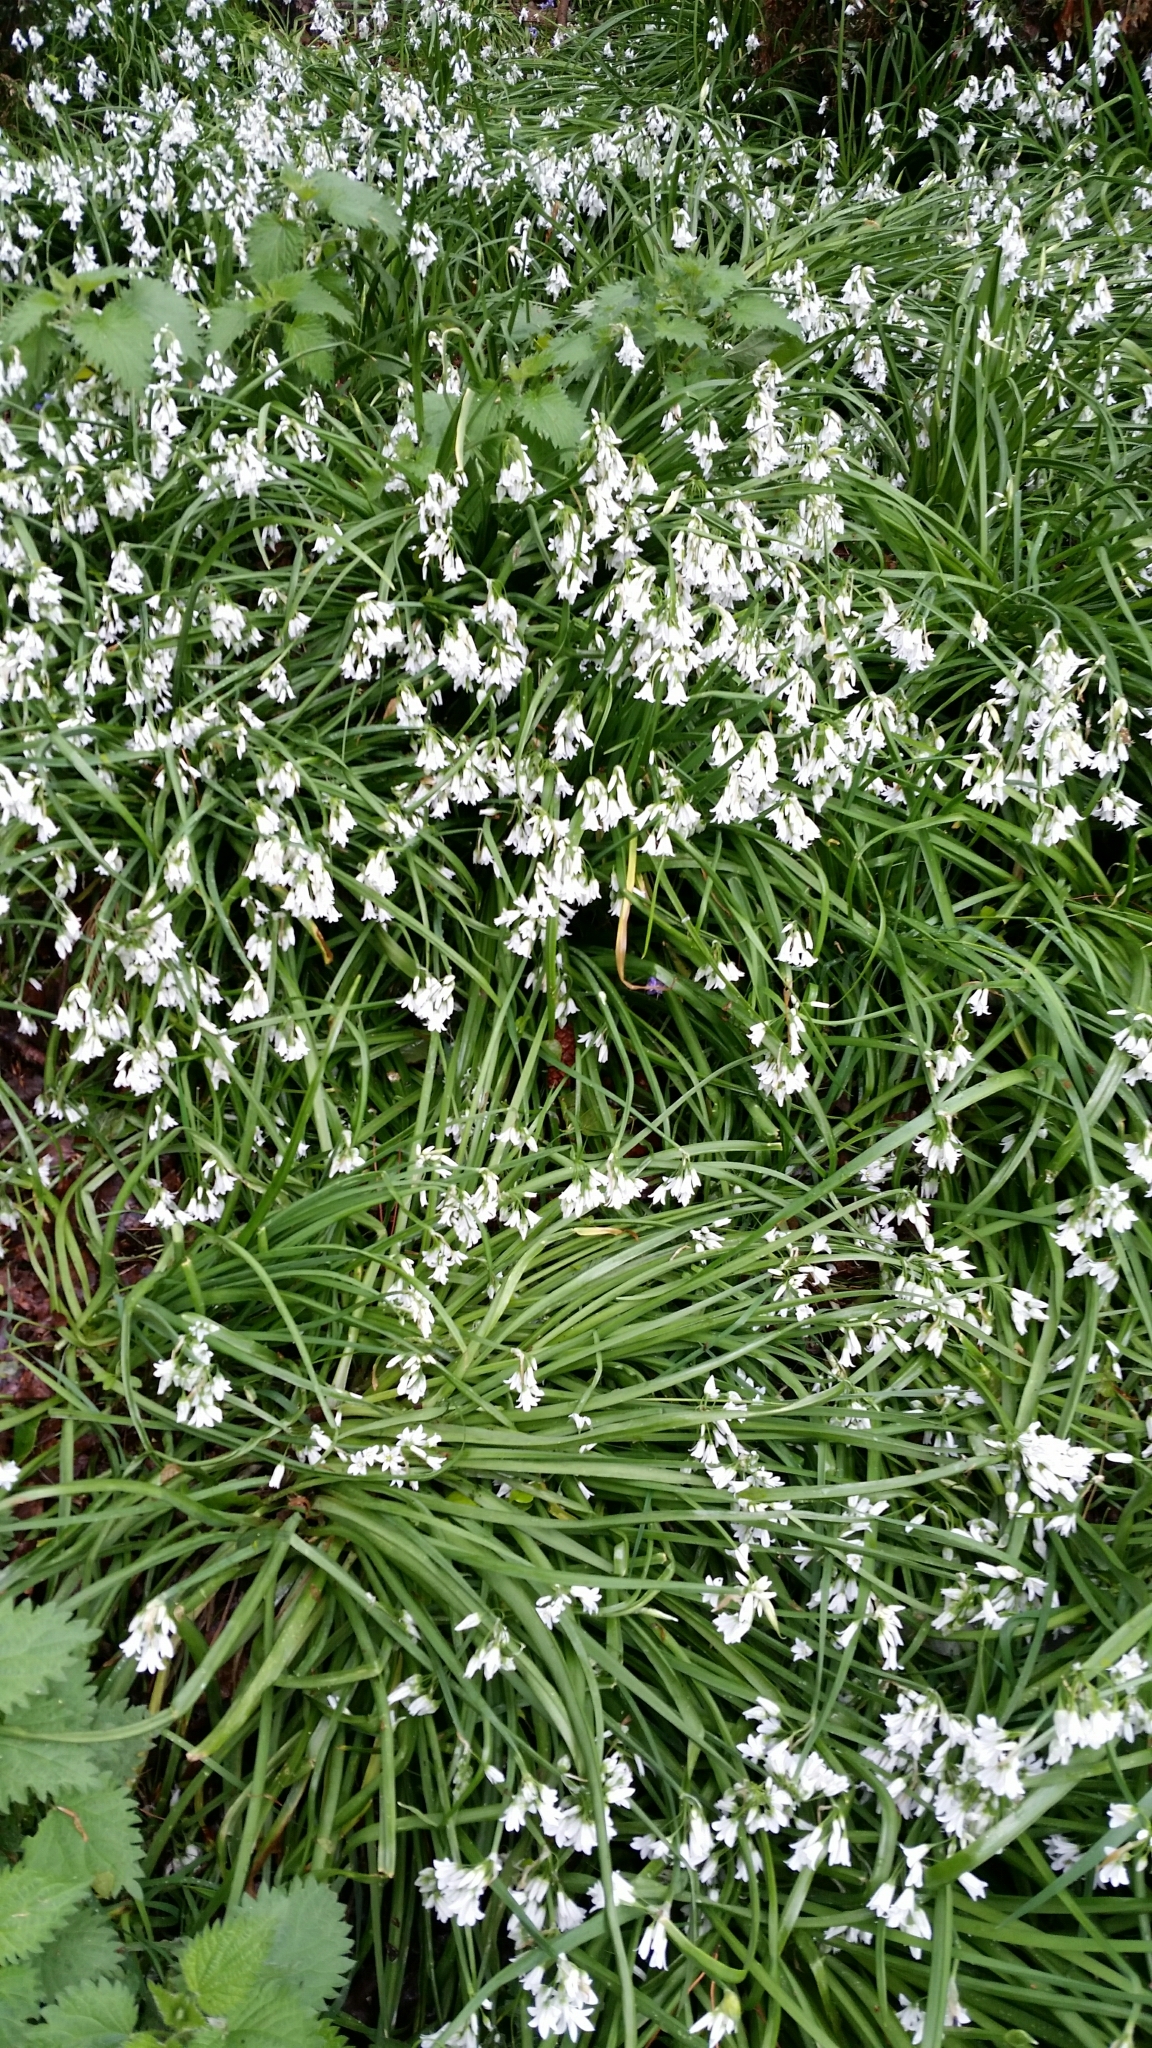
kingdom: Plantae
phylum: Tracheophyta
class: Liliopsida
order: Asparagales
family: Amaryllidaceae
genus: Allium
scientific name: Allium triquetrum
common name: Three-cornered garlic
